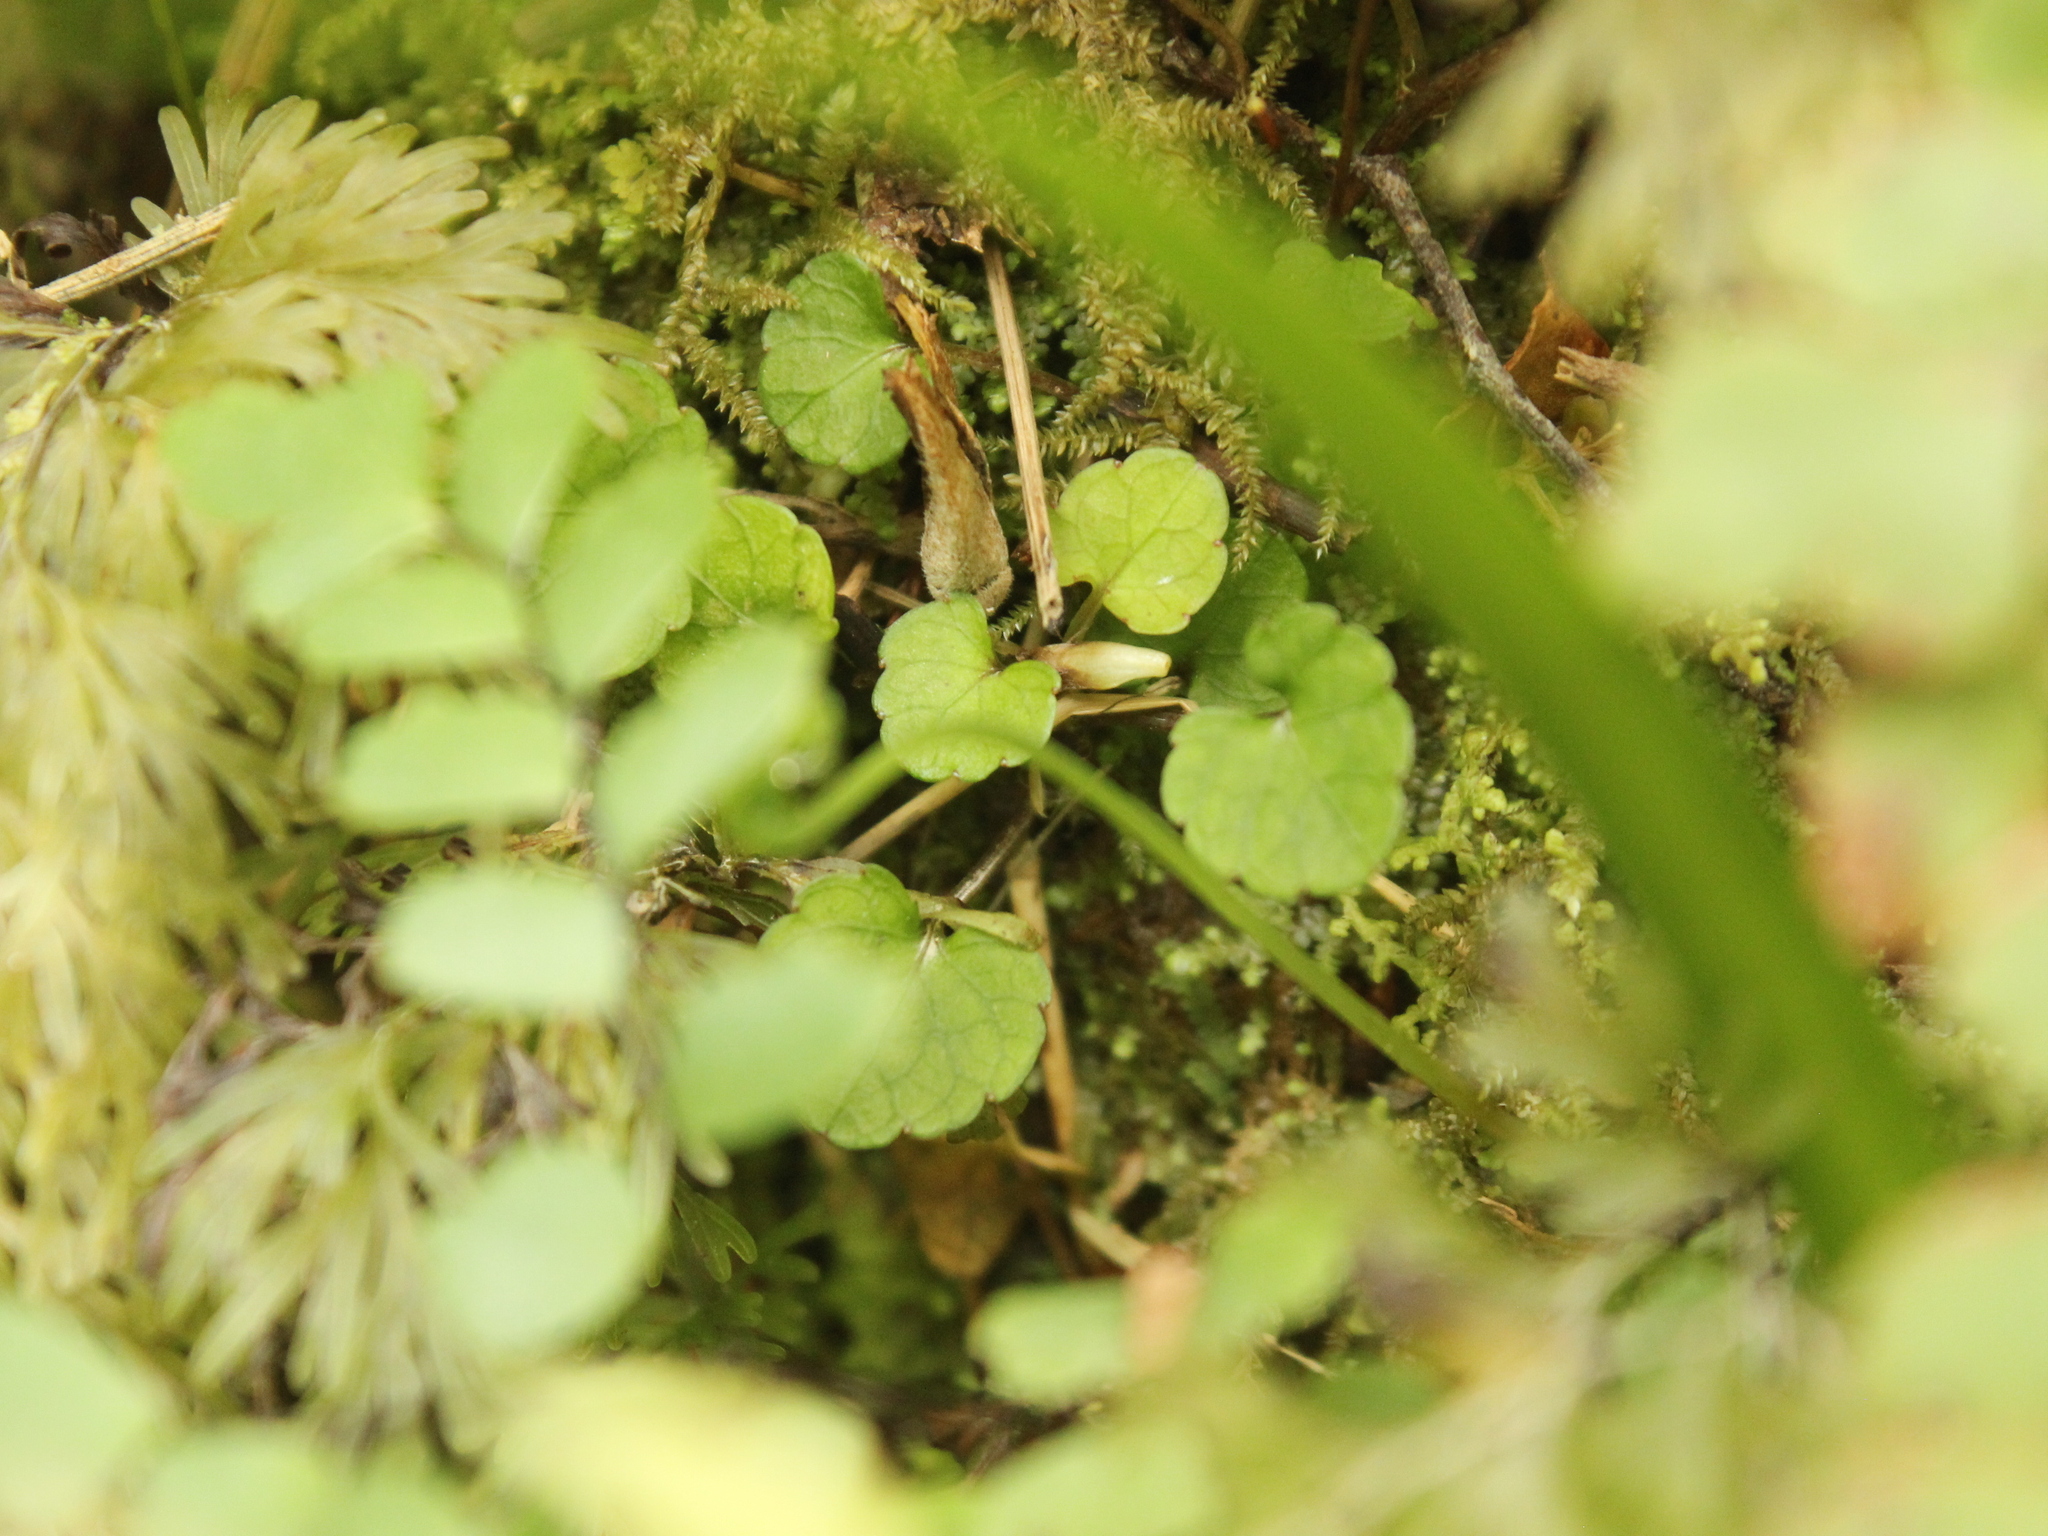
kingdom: Plantae
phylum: Tracheophyta
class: Magnoliopsida
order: Malpighiales
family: Violaceae
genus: Viola
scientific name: Viola filicaulis
